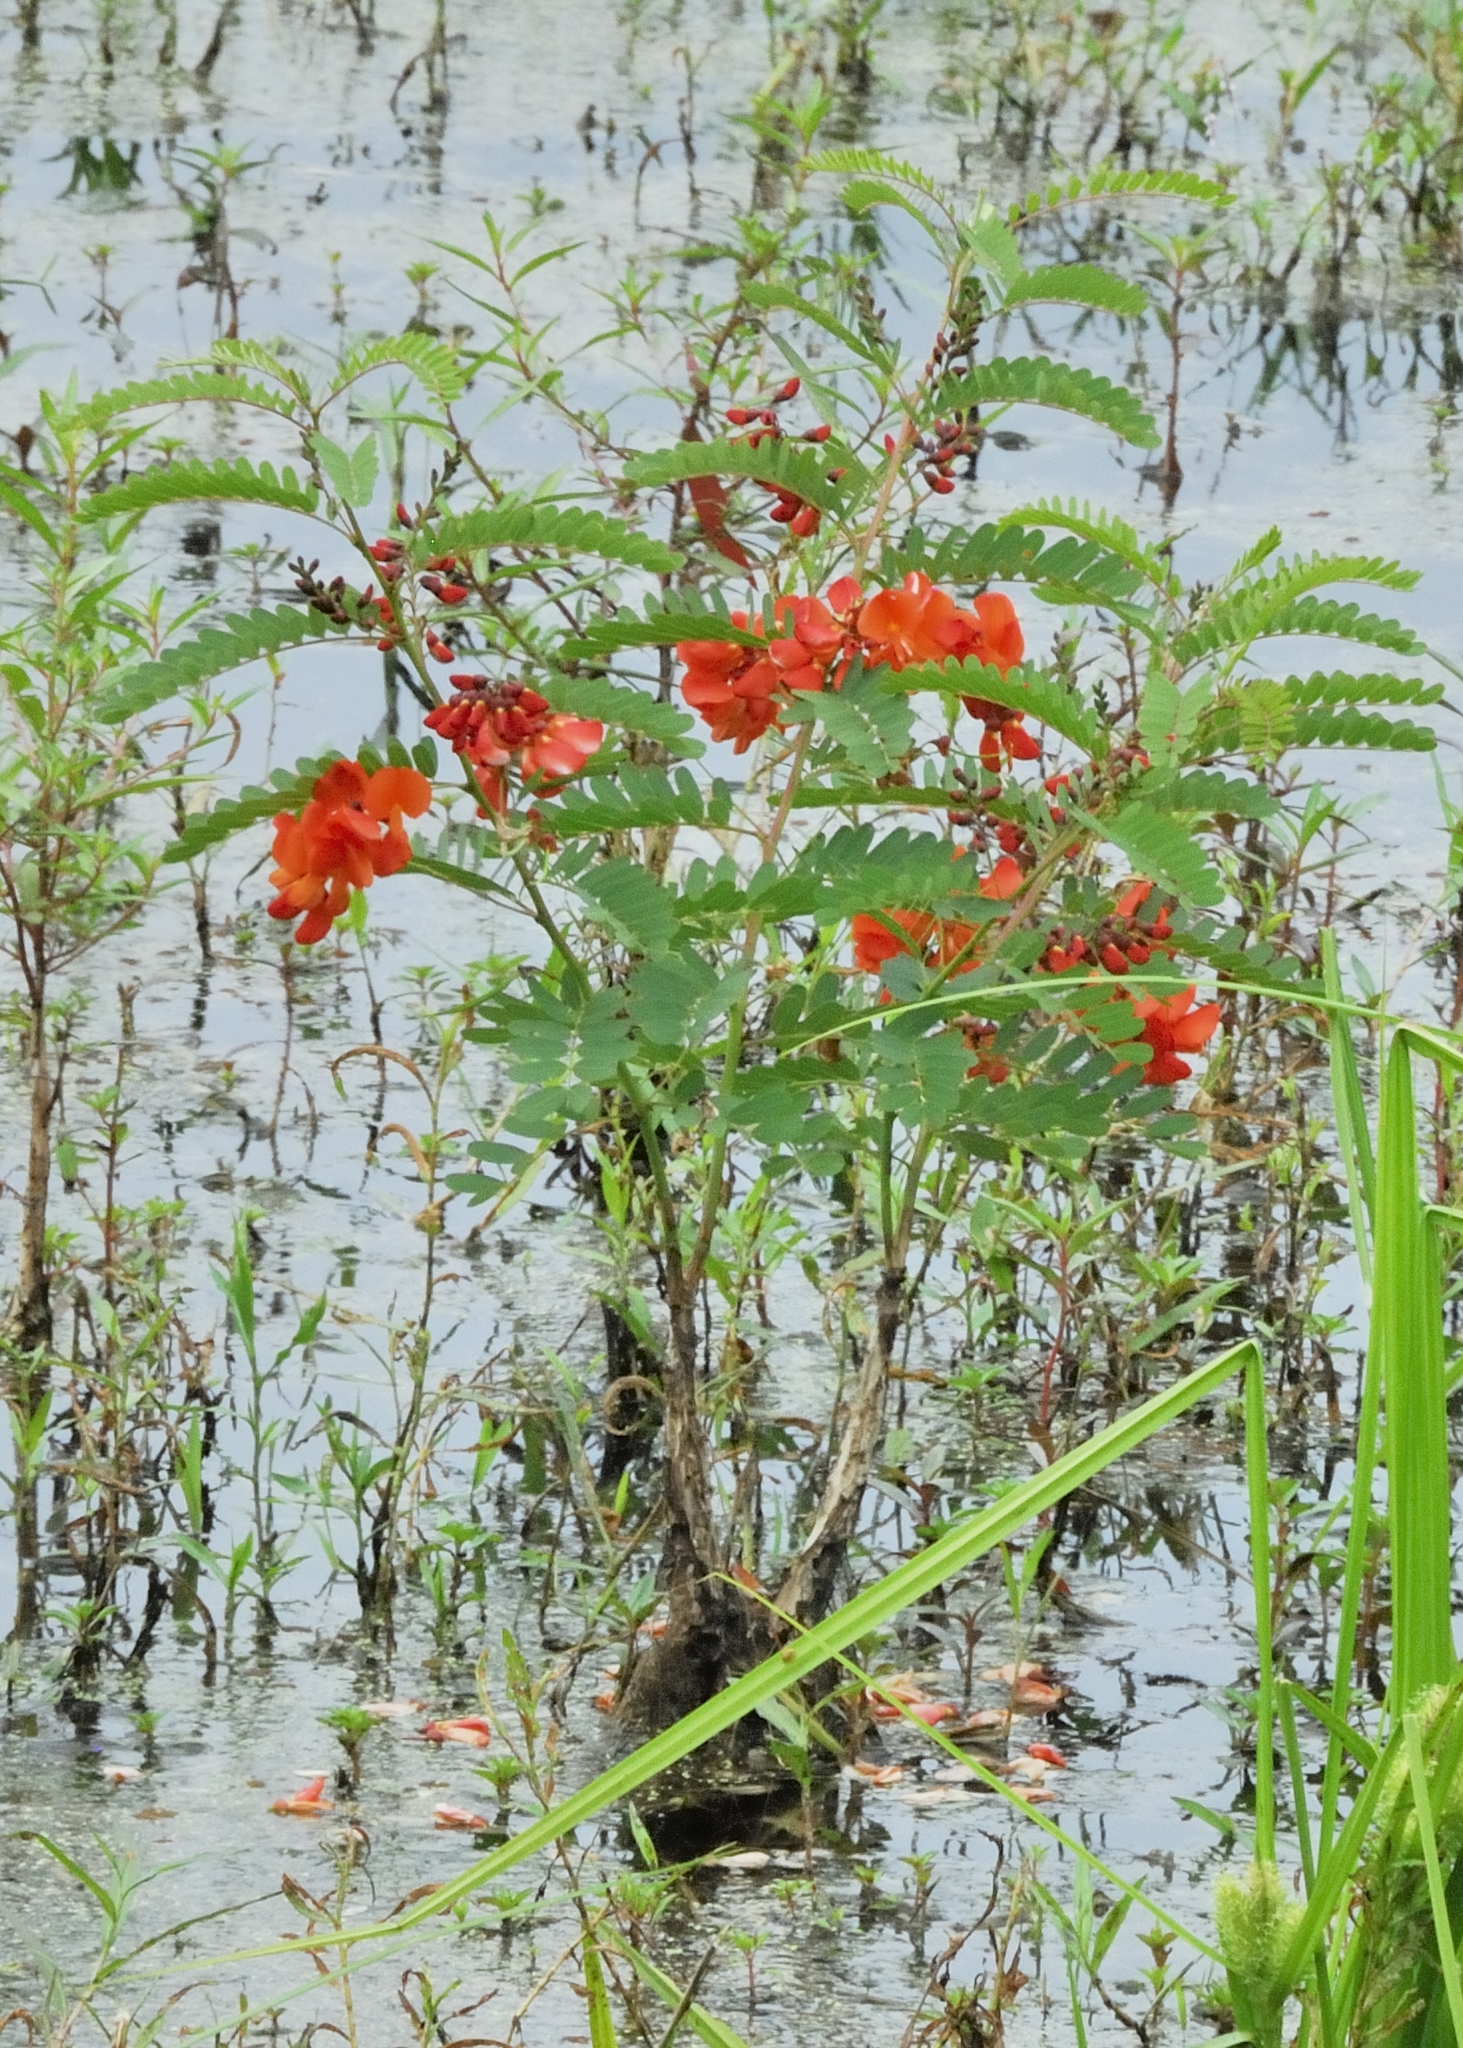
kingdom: Plantae
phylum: Tracheophyta
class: Magnoliopsida
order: Fabales
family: Fabaceae
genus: Sesbania
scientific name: Sesbania punicea
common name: Rattlebox
